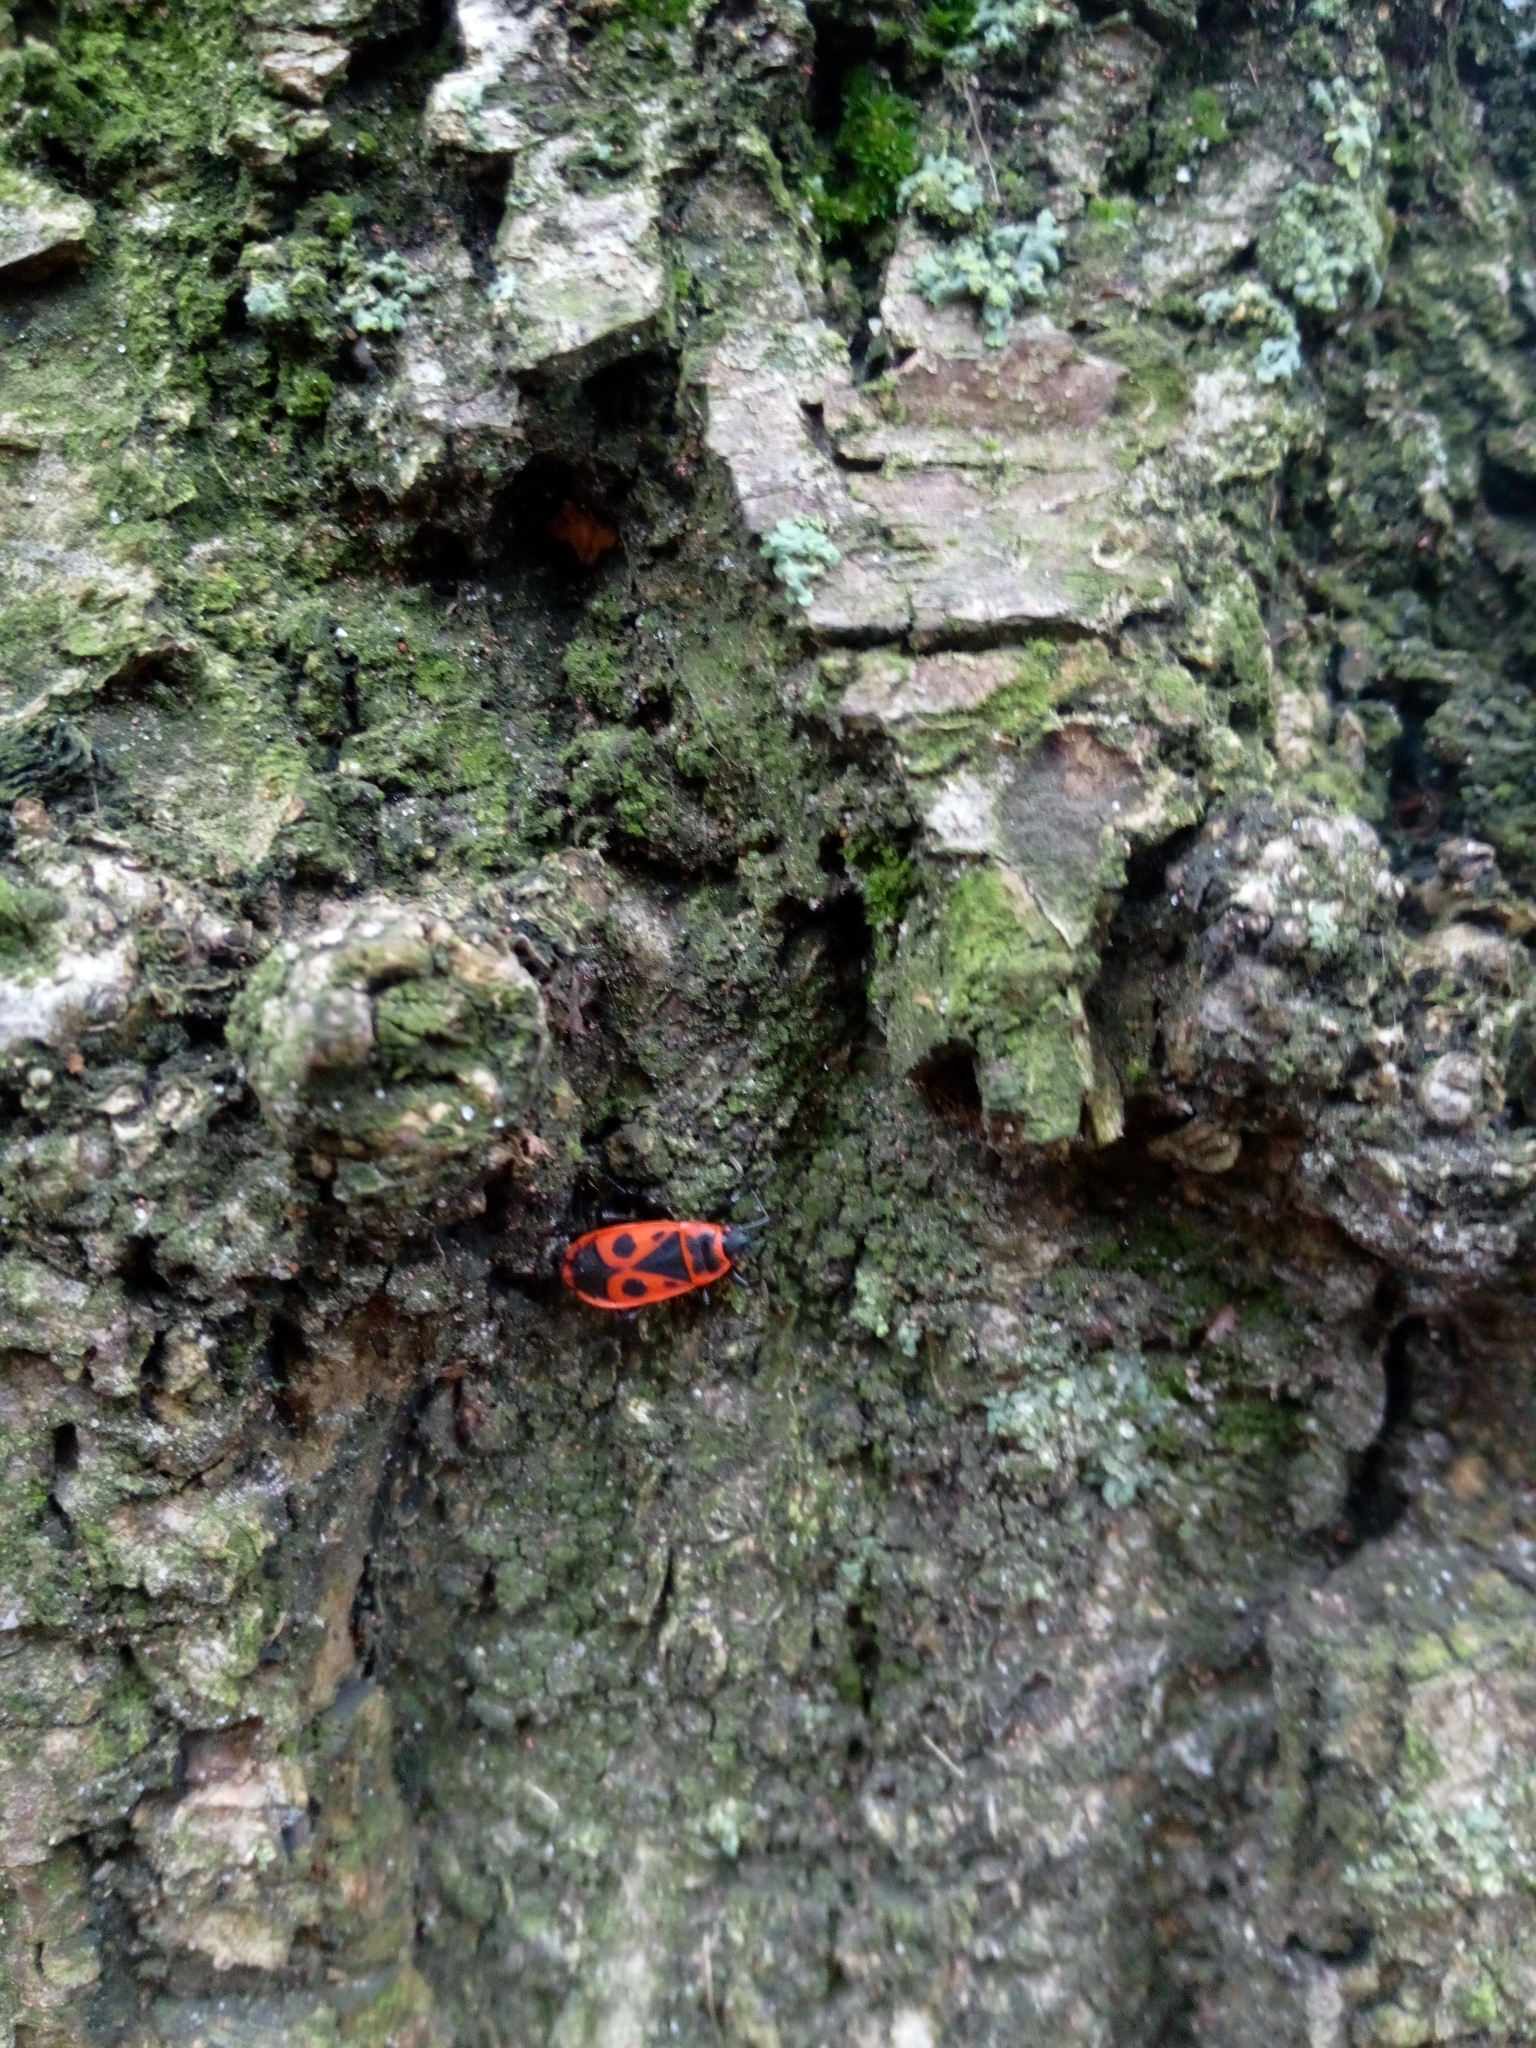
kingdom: Animalia
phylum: Arthropoda
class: Insecta
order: Hemiptera
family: Pyrrhocoridae
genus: Pyrrhocoris
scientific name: Pyrrhocoris apterus
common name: Firebug
